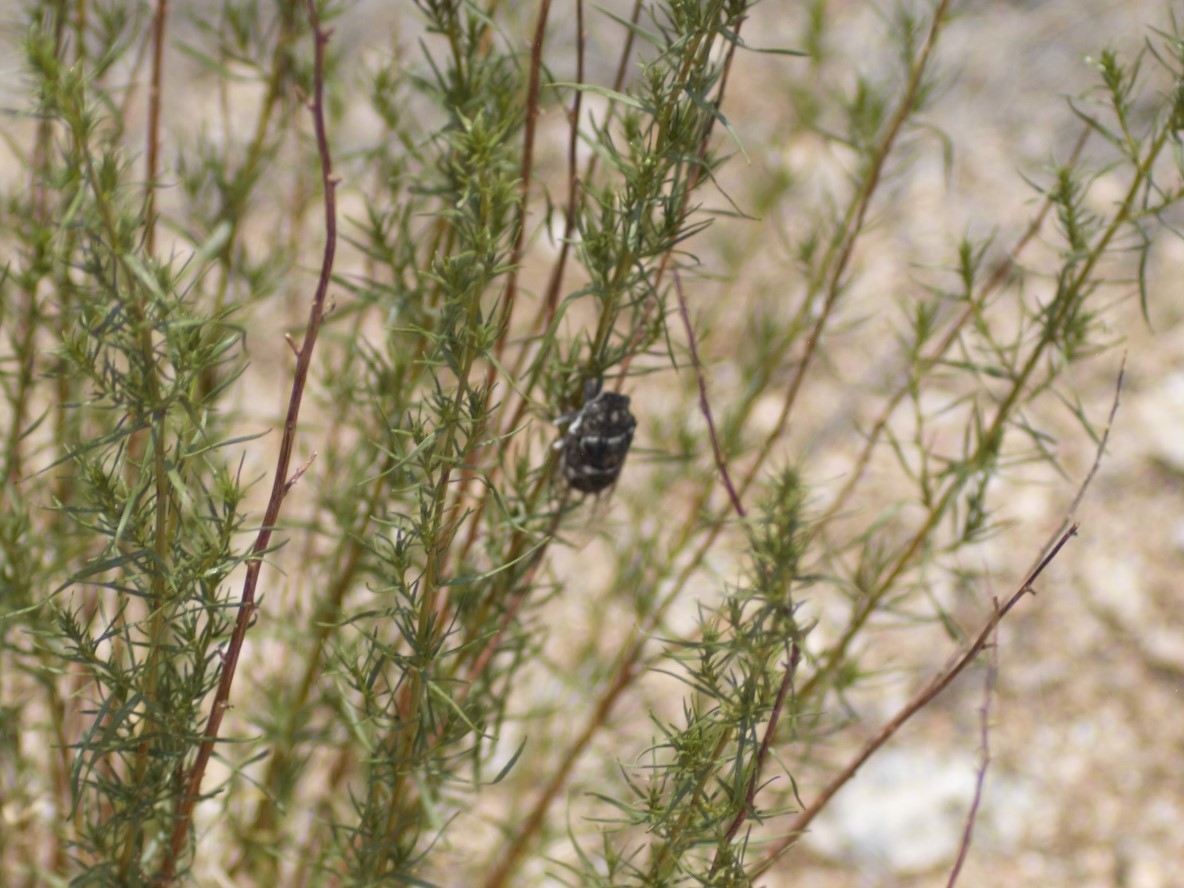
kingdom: Animalia
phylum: Arthropoda
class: Insecta
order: Hemiptera
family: Cicadidae
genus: Cacama
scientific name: Cacama valvata
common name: Cactus dodger
